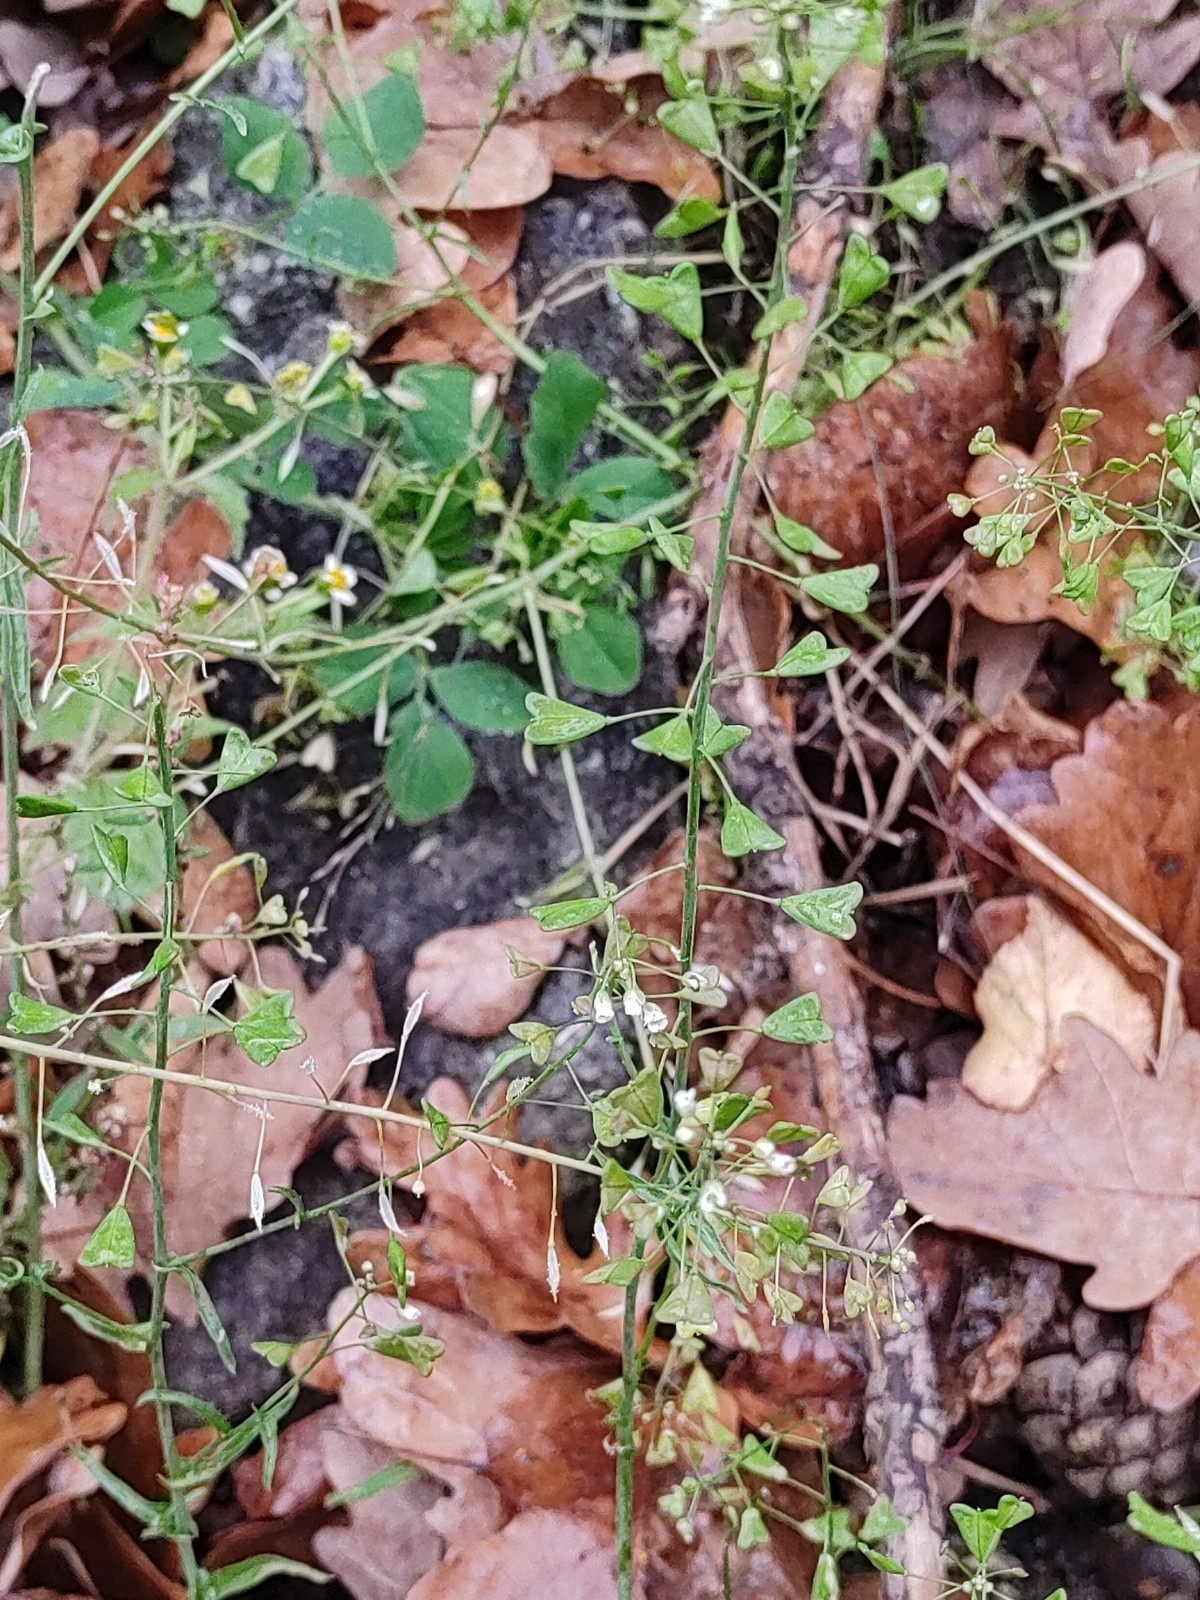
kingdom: Plantae
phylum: Tracheophyta
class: Magnoliopsida
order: Brassicales
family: Brassicaceae
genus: Capsella
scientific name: Capsella bursa-pastoris
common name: Shepherd's purse
